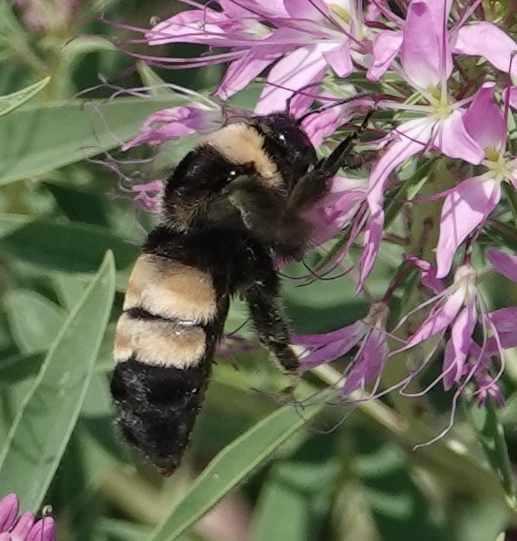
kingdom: Animalia
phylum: Arthropoda
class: Insecta
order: Hymenoptera
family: Apidae
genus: Bombus
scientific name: Bombus auricomus
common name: Black and gold bumble bee
